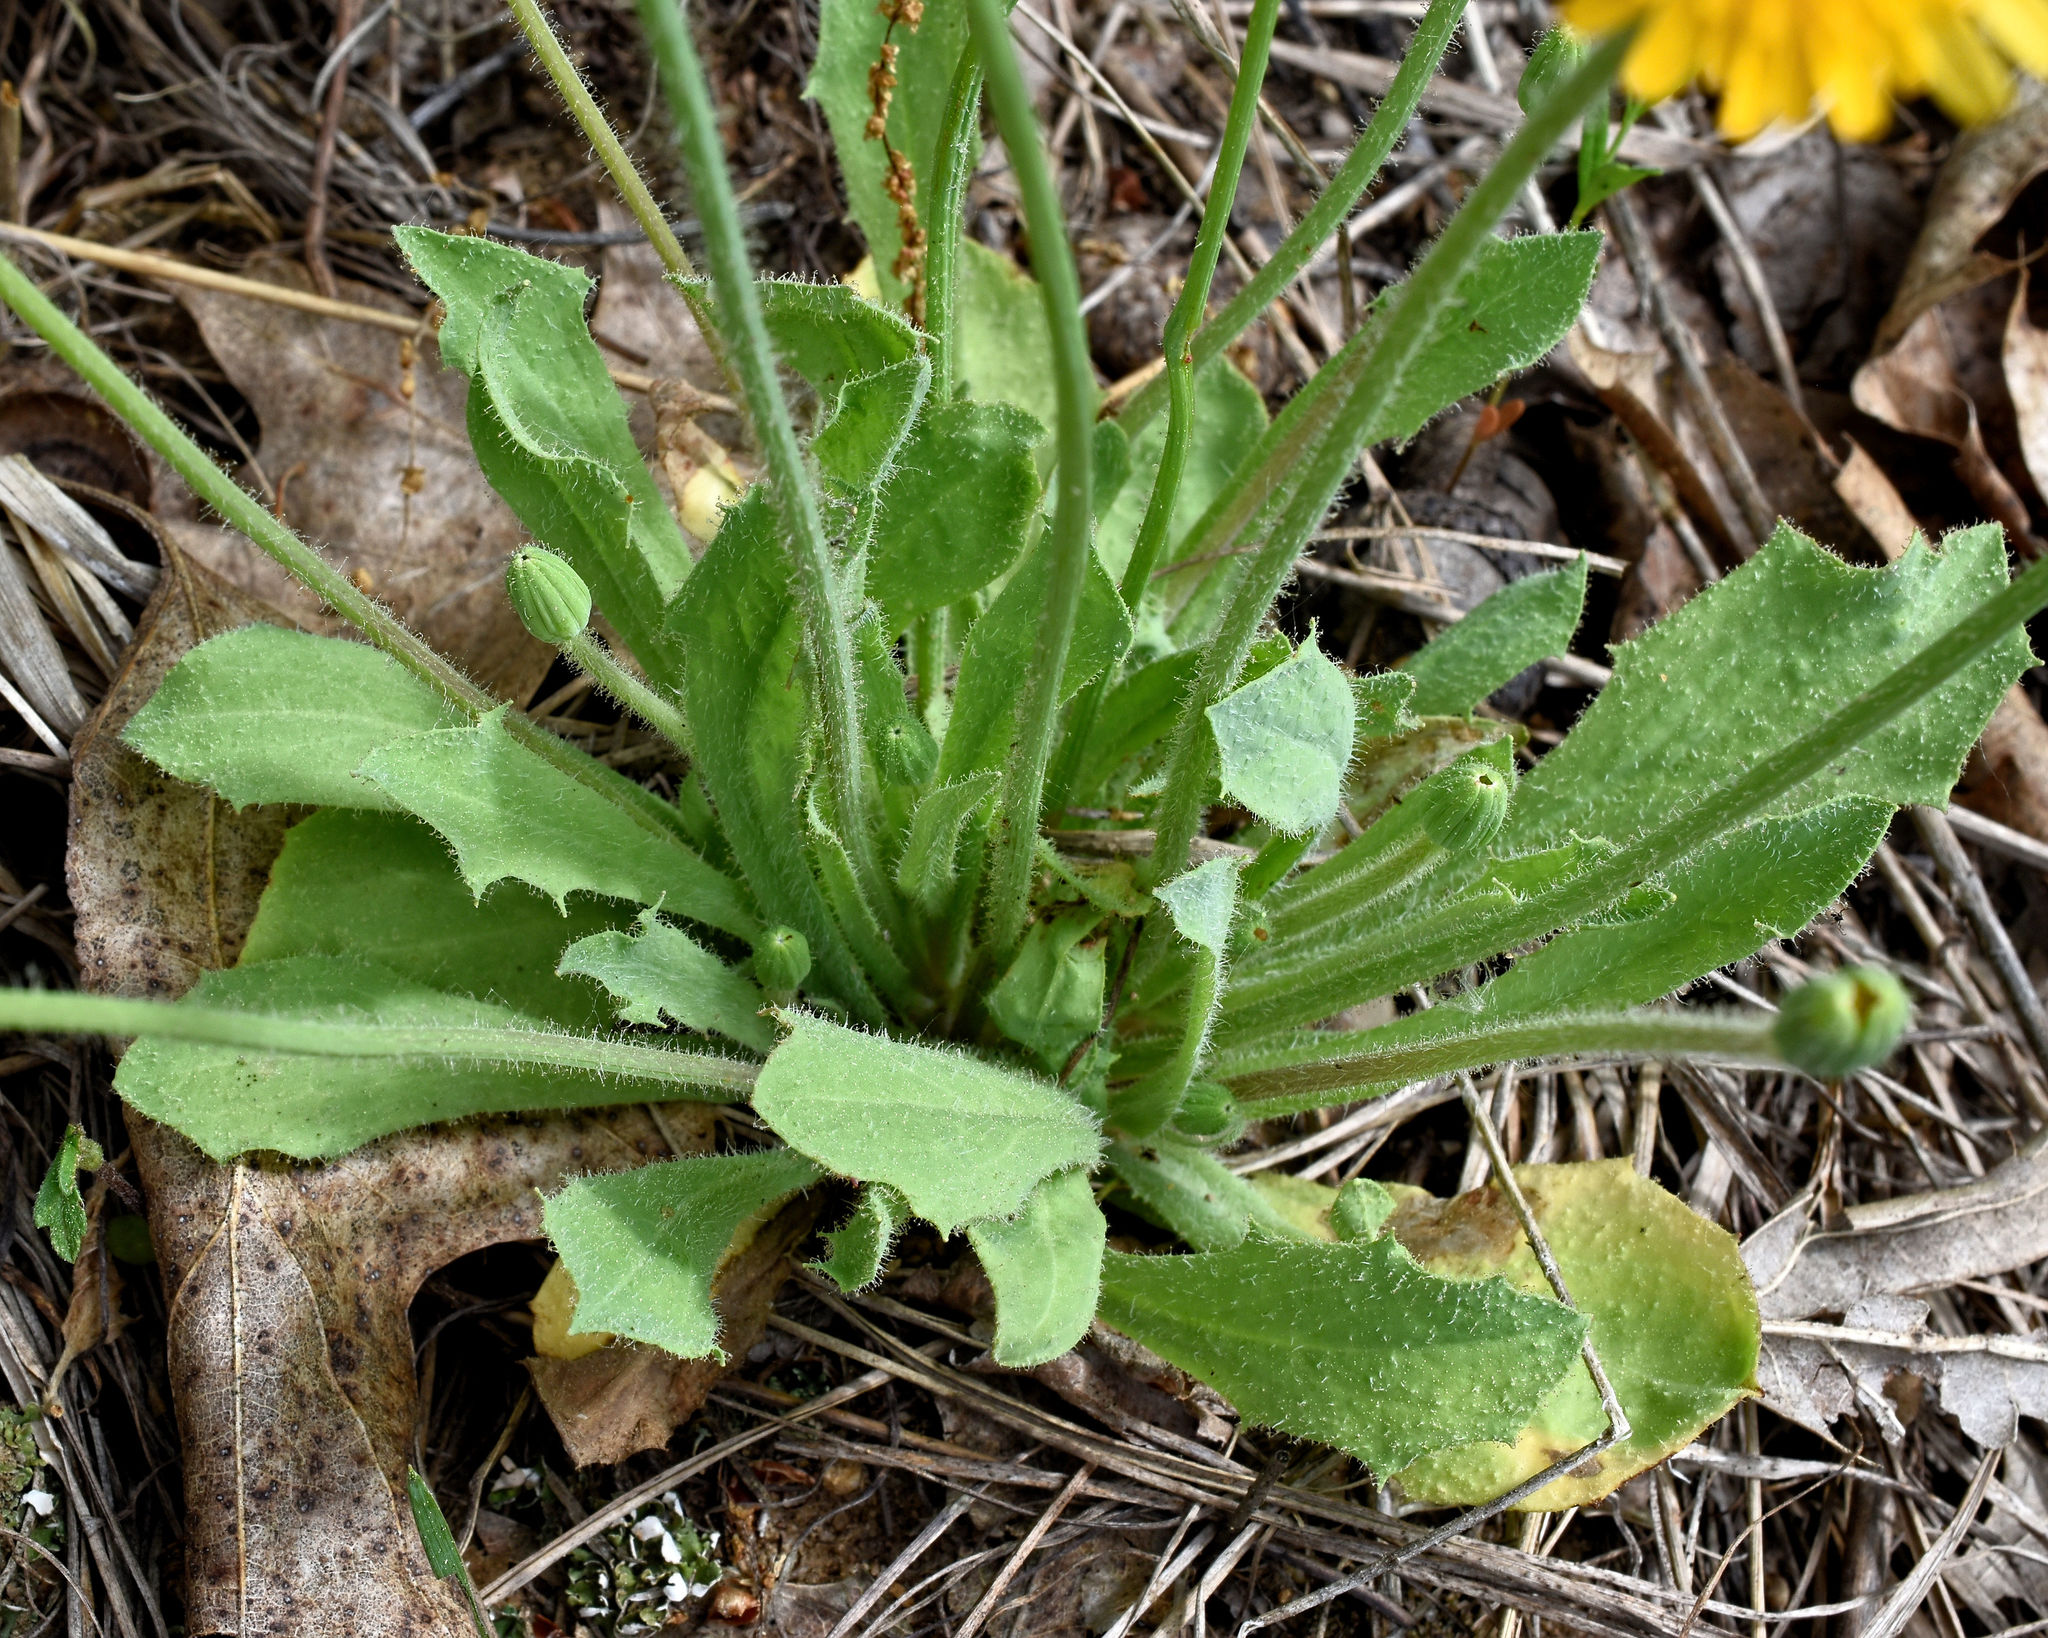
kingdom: Plantae
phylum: Tracheophyta
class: Magnoliopsida
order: Asterales
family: Asteraceae
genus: Krigia
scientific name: Krigia virginica
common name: Virginia dwarf-dandelion
